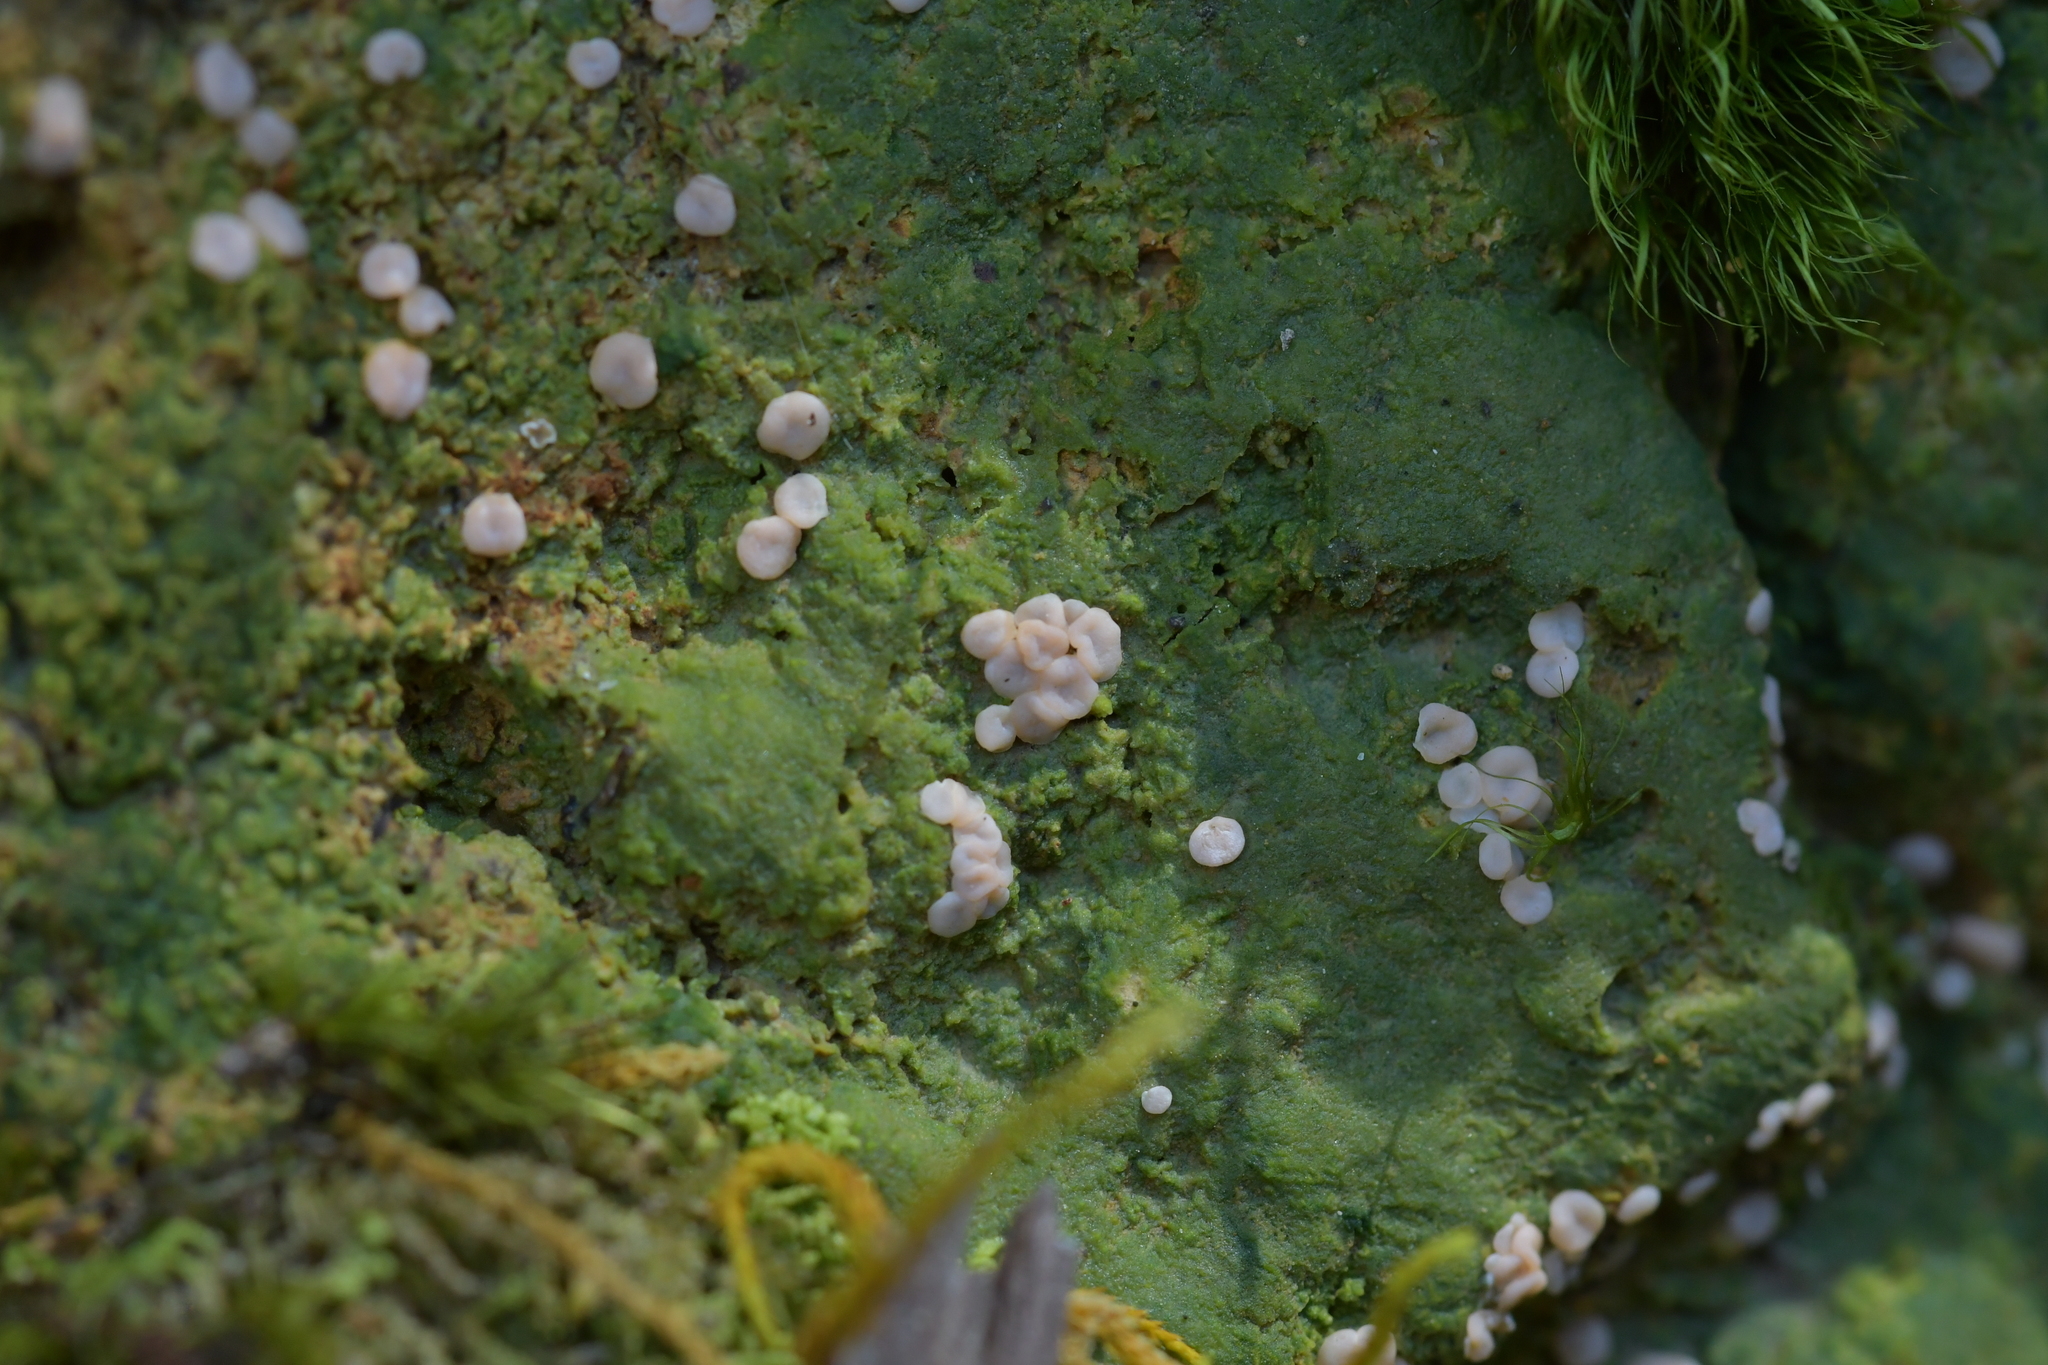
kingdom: Fungi
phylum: Ascomycota
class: Lecanoromycetes
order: Pertusariales
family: Icmadophilaceae
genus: Dibaeis
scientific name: Dibaeis absoluta
